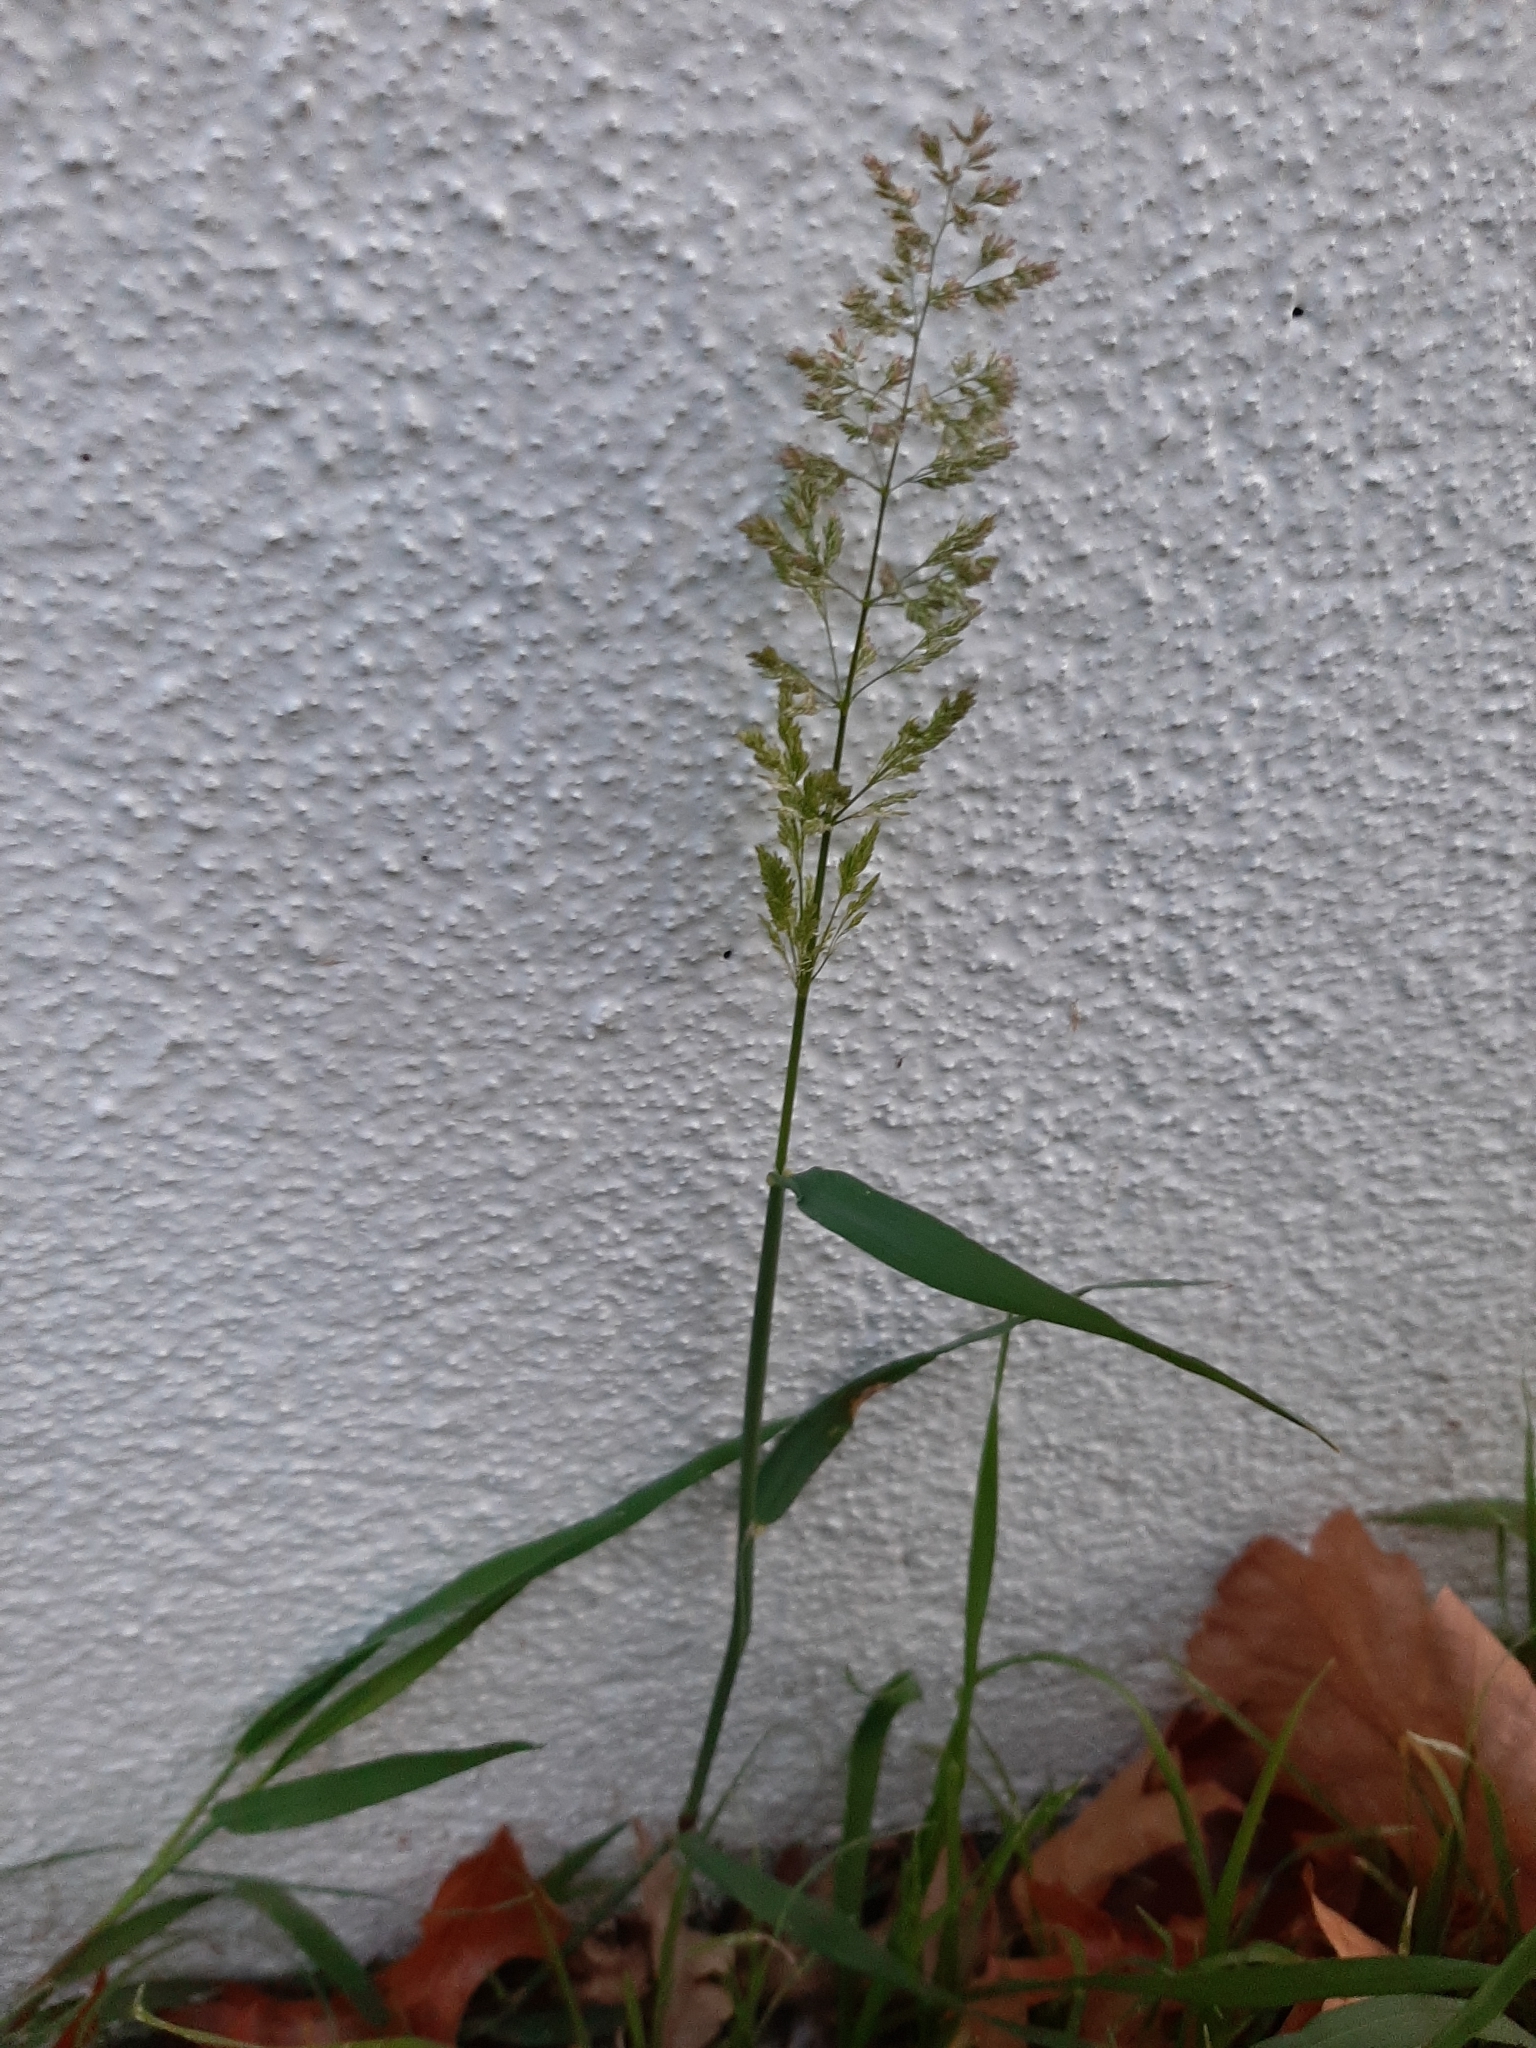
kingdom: Plantae
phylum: Tracheophyta
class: Liliopsida
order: Poales
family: Poaceae
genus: Polypogon
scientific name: Polypogon viridis
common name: Water bent
